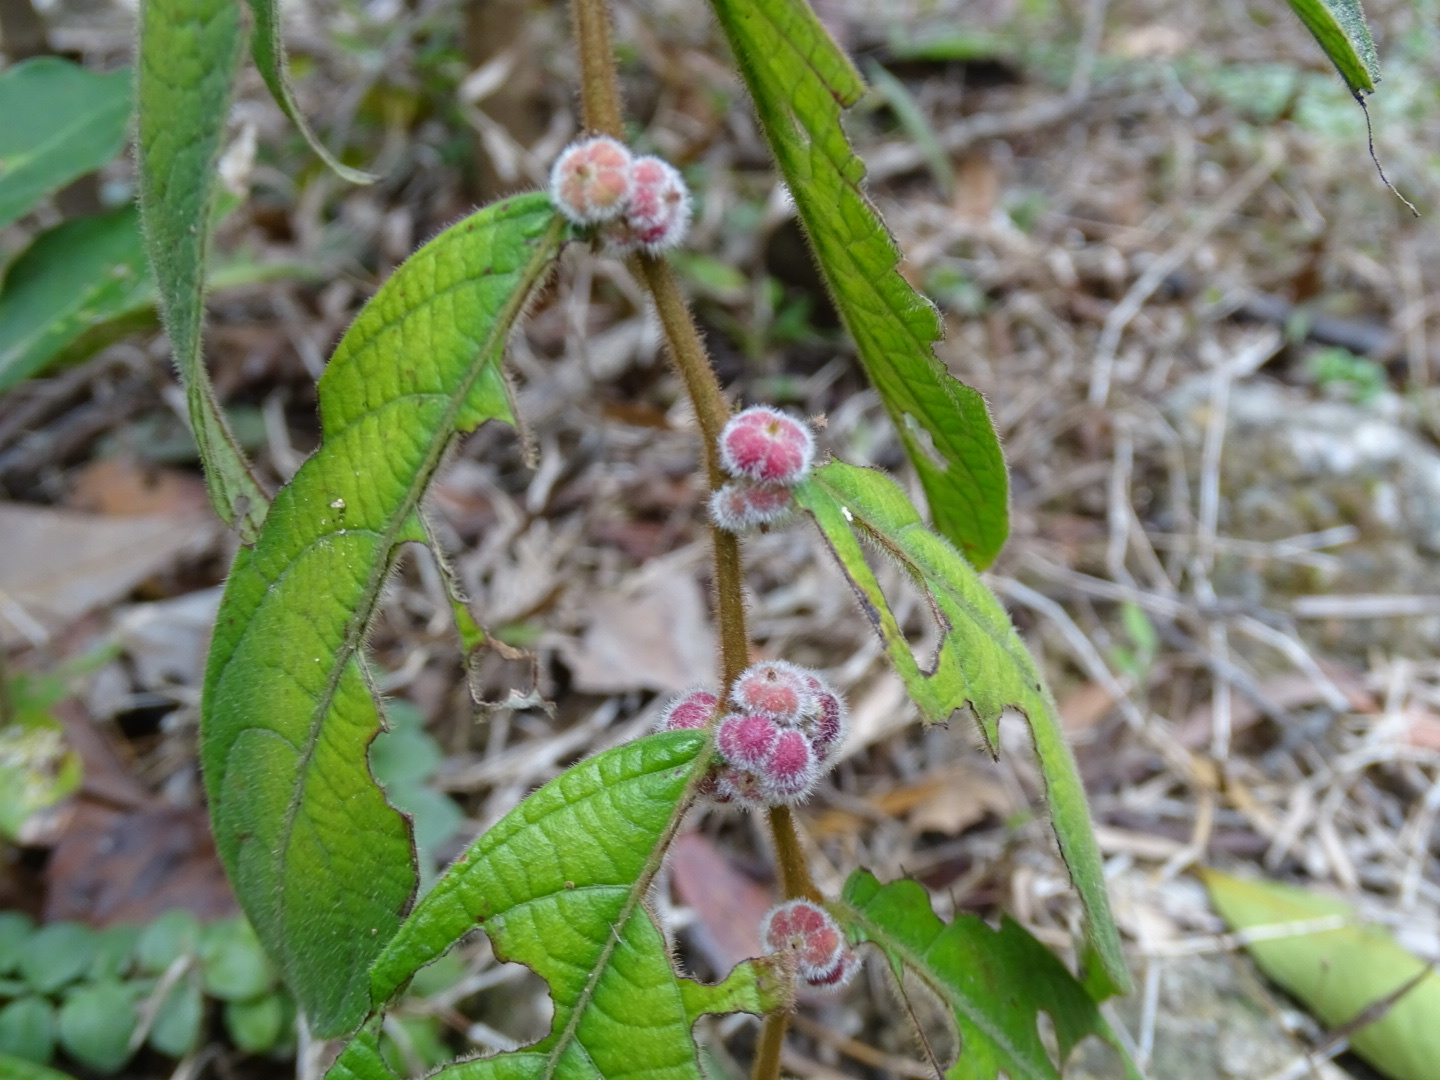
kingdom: Plantae
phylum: Tracheophyta
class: Magnoliopsida
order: Malpighiales
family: Phyllanthaceae
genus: Glochidion
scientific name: Glochidion eriocarpum
